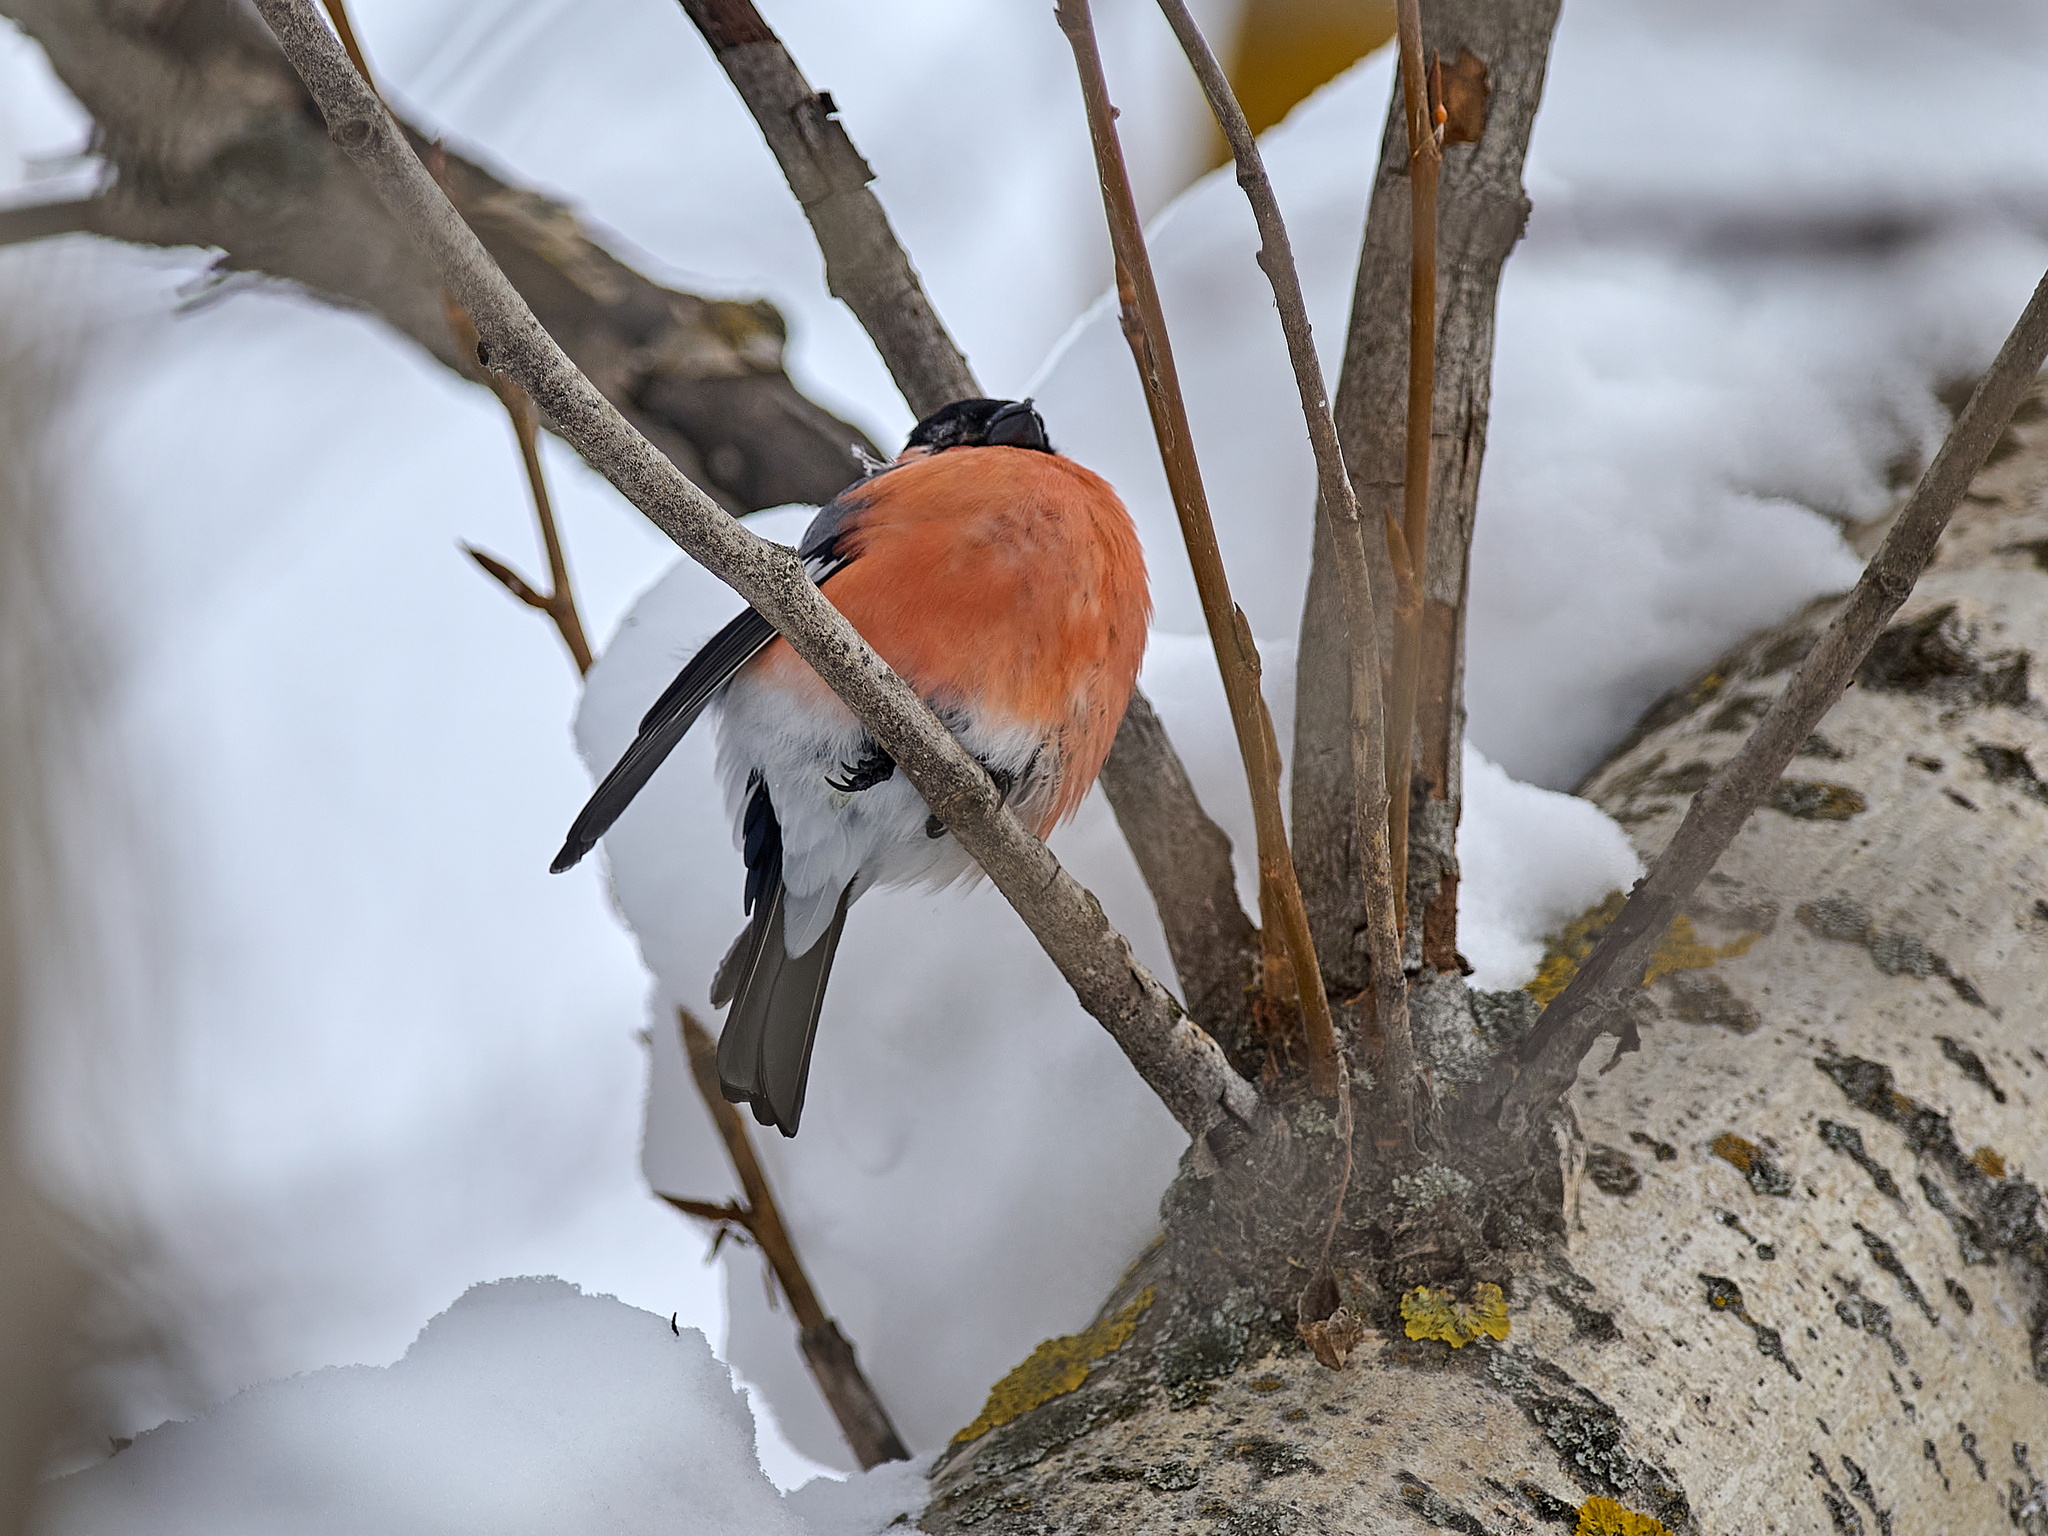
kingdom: Animalia
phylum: Chordata
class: Aves
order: Passeriformes
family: Fringillidae
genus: Pyrrhula
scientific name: Pyrrhula pyrrhula
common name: Eurasian bullfinch
